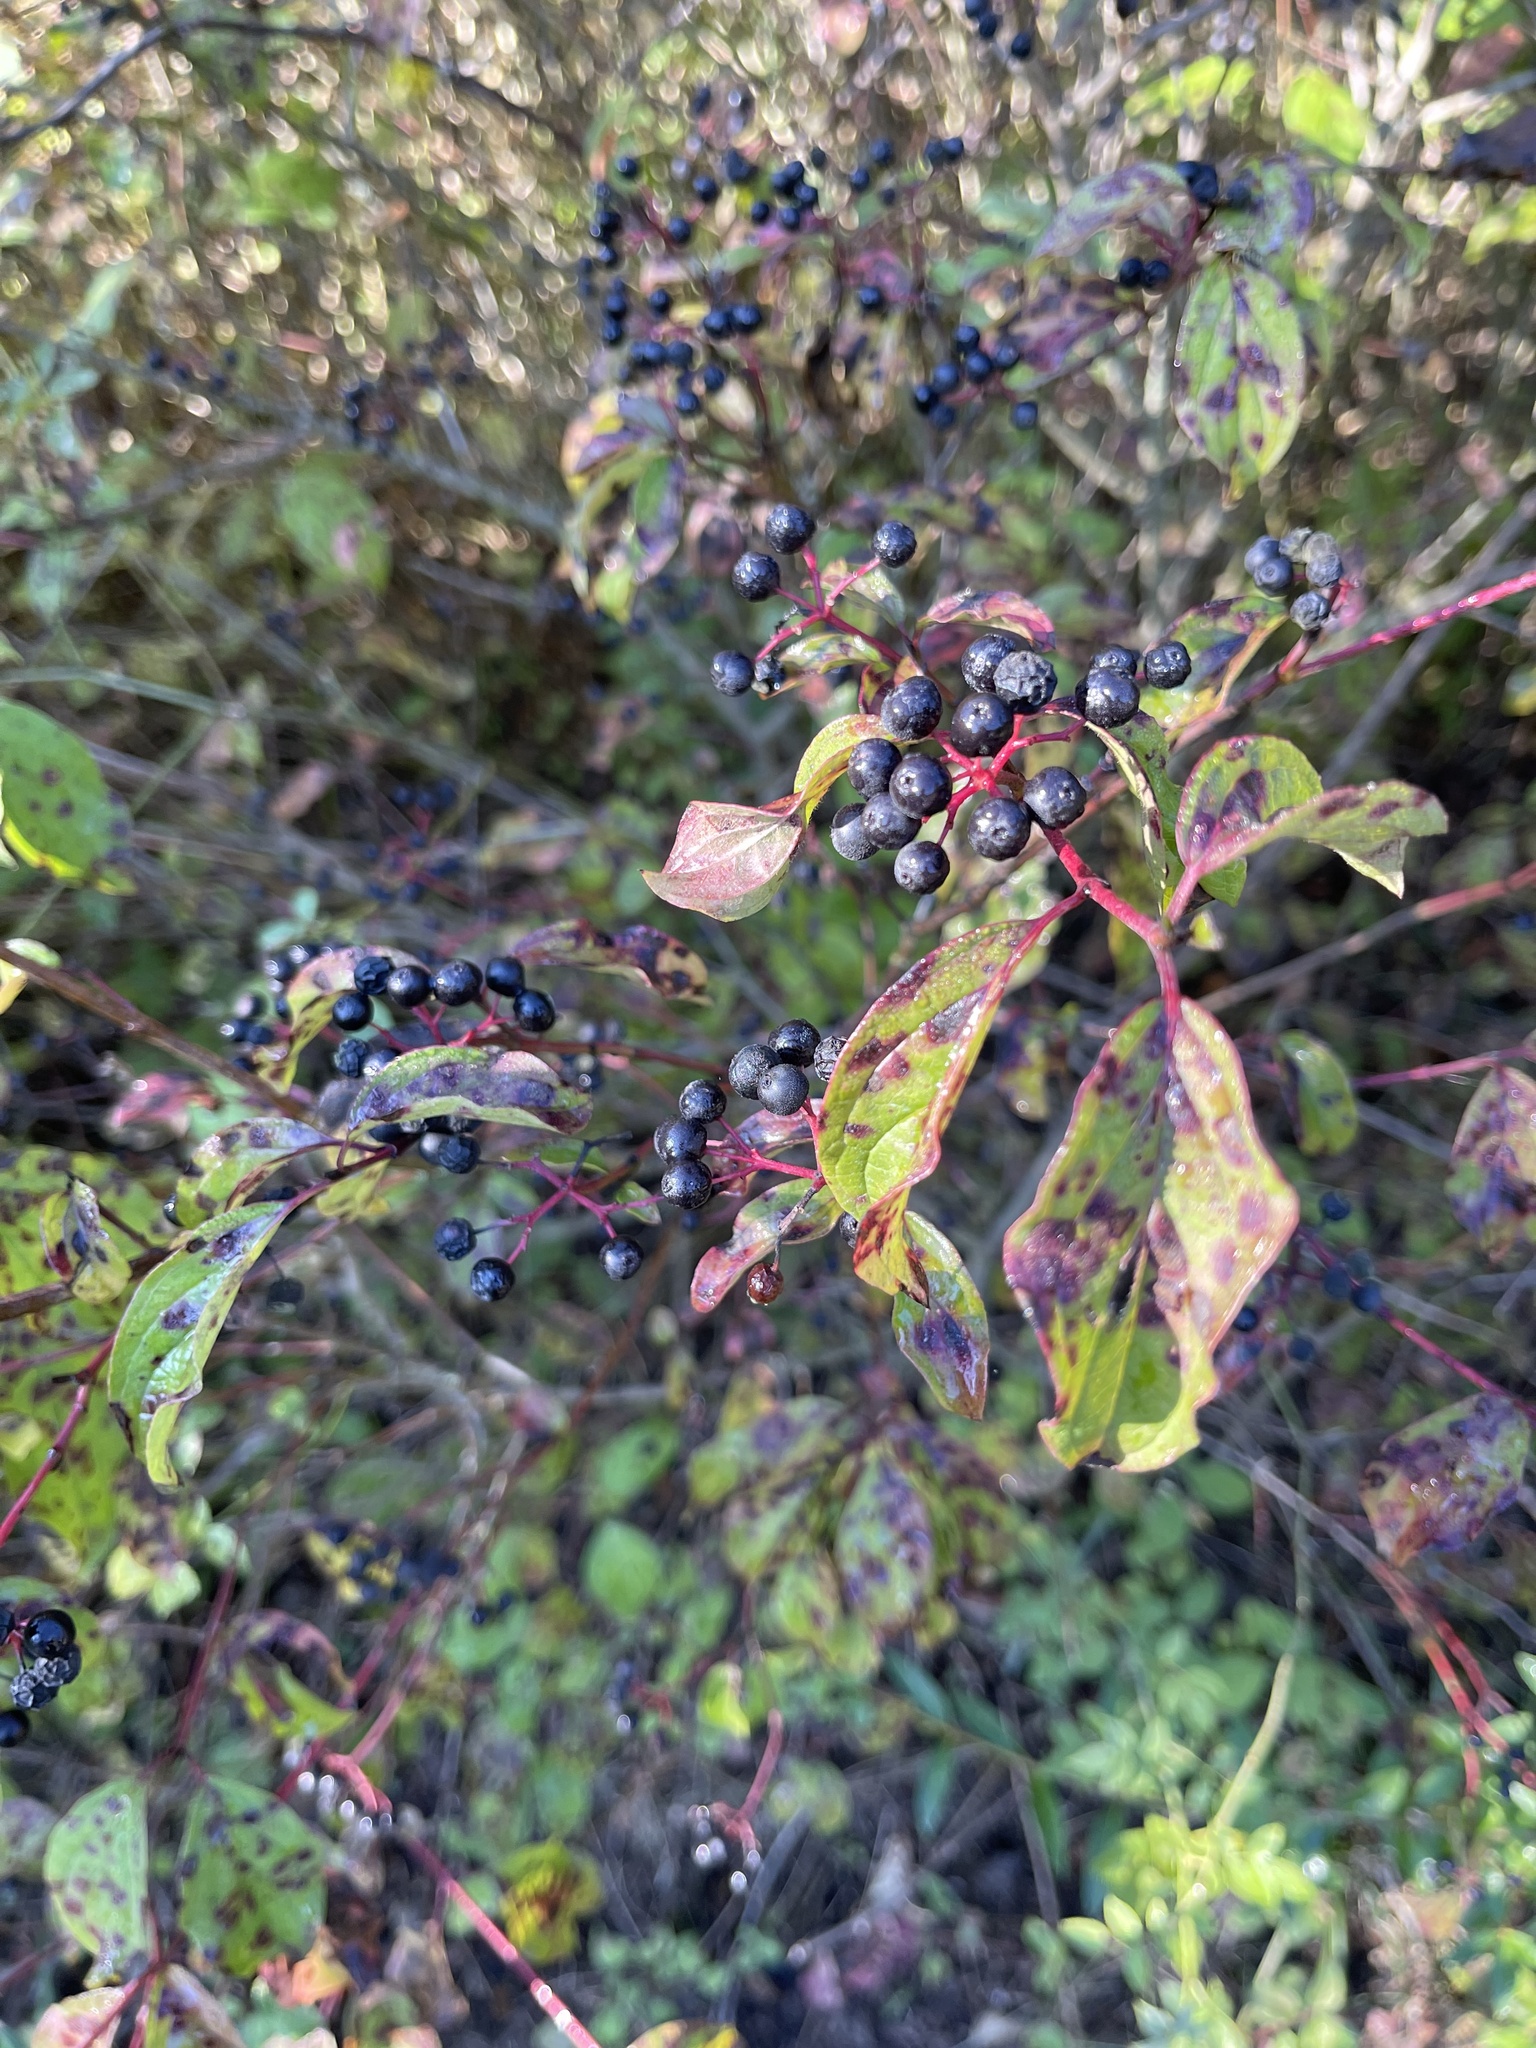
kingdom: Plantae
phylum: Tracheophyta
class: Magnoliopsida
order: Cornales
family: Cornaceae
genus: Cornus
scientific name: Cornus sanguinea
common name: Dogwood
